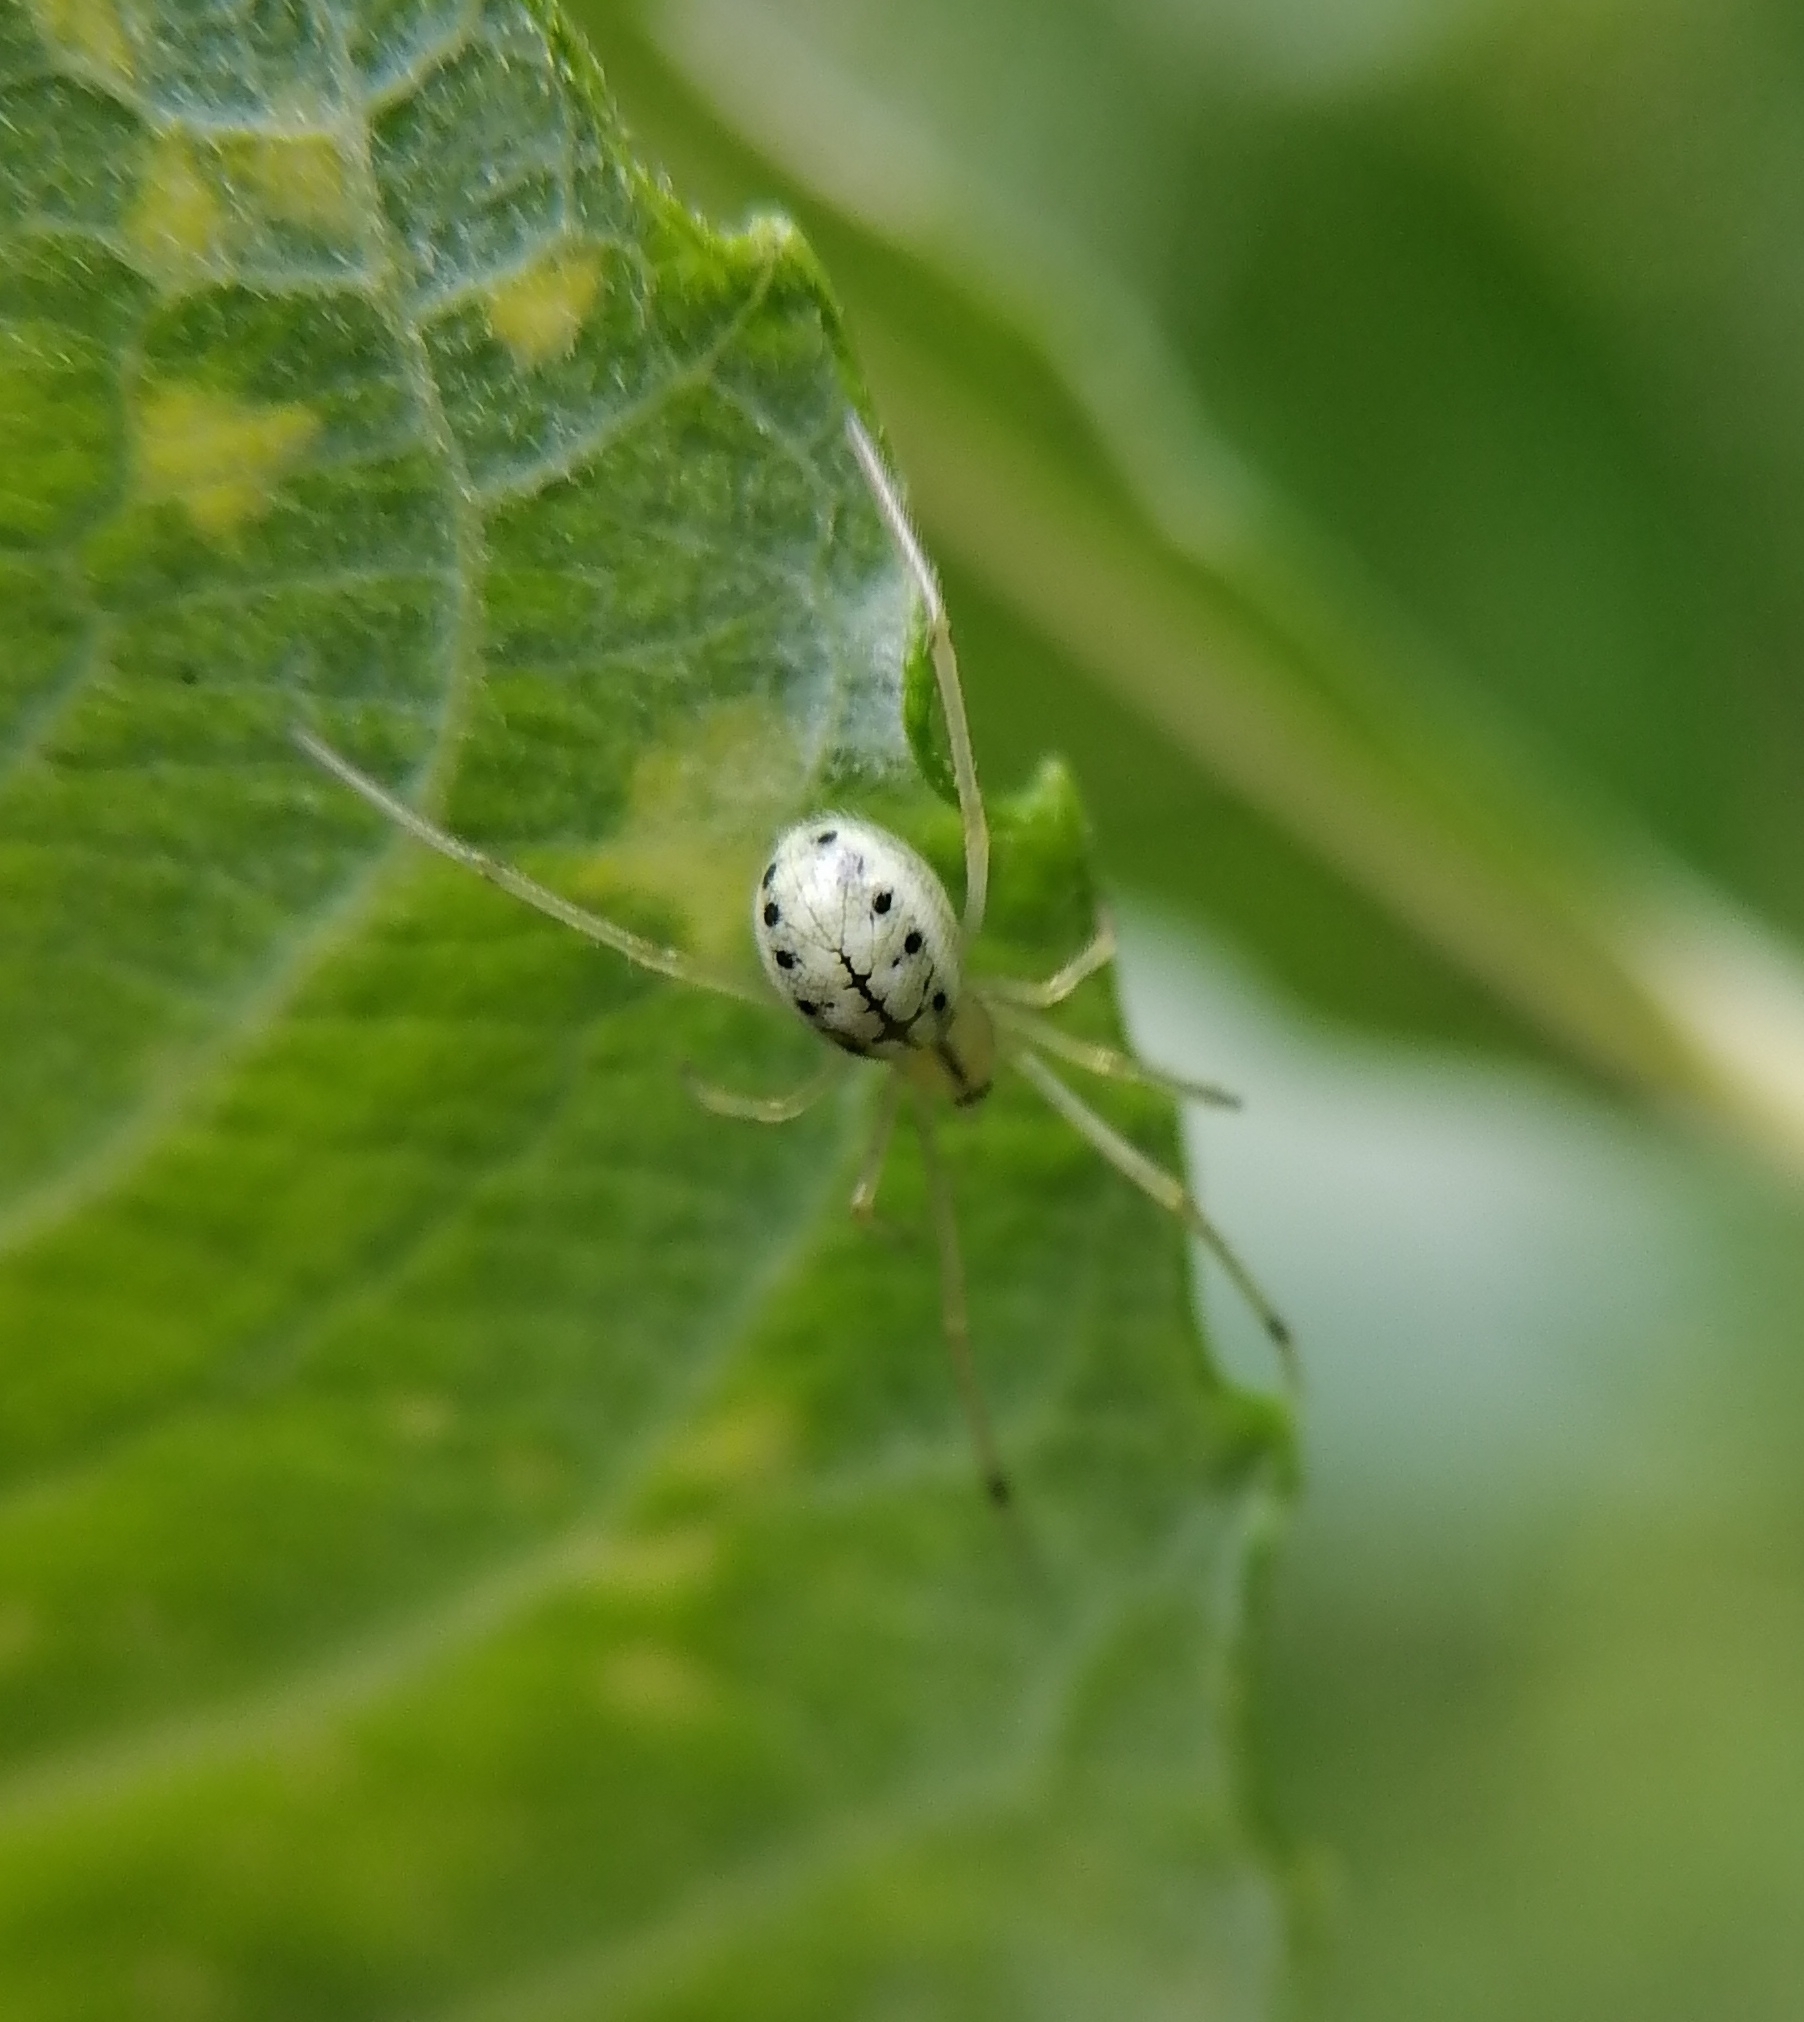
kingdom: Animalia
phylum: Arthropoda
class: Arachnida
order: Araneae
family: Theridiidae
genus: Enoplognatha
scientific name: Enoplognatha ovata
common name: Common candy-striped spider
